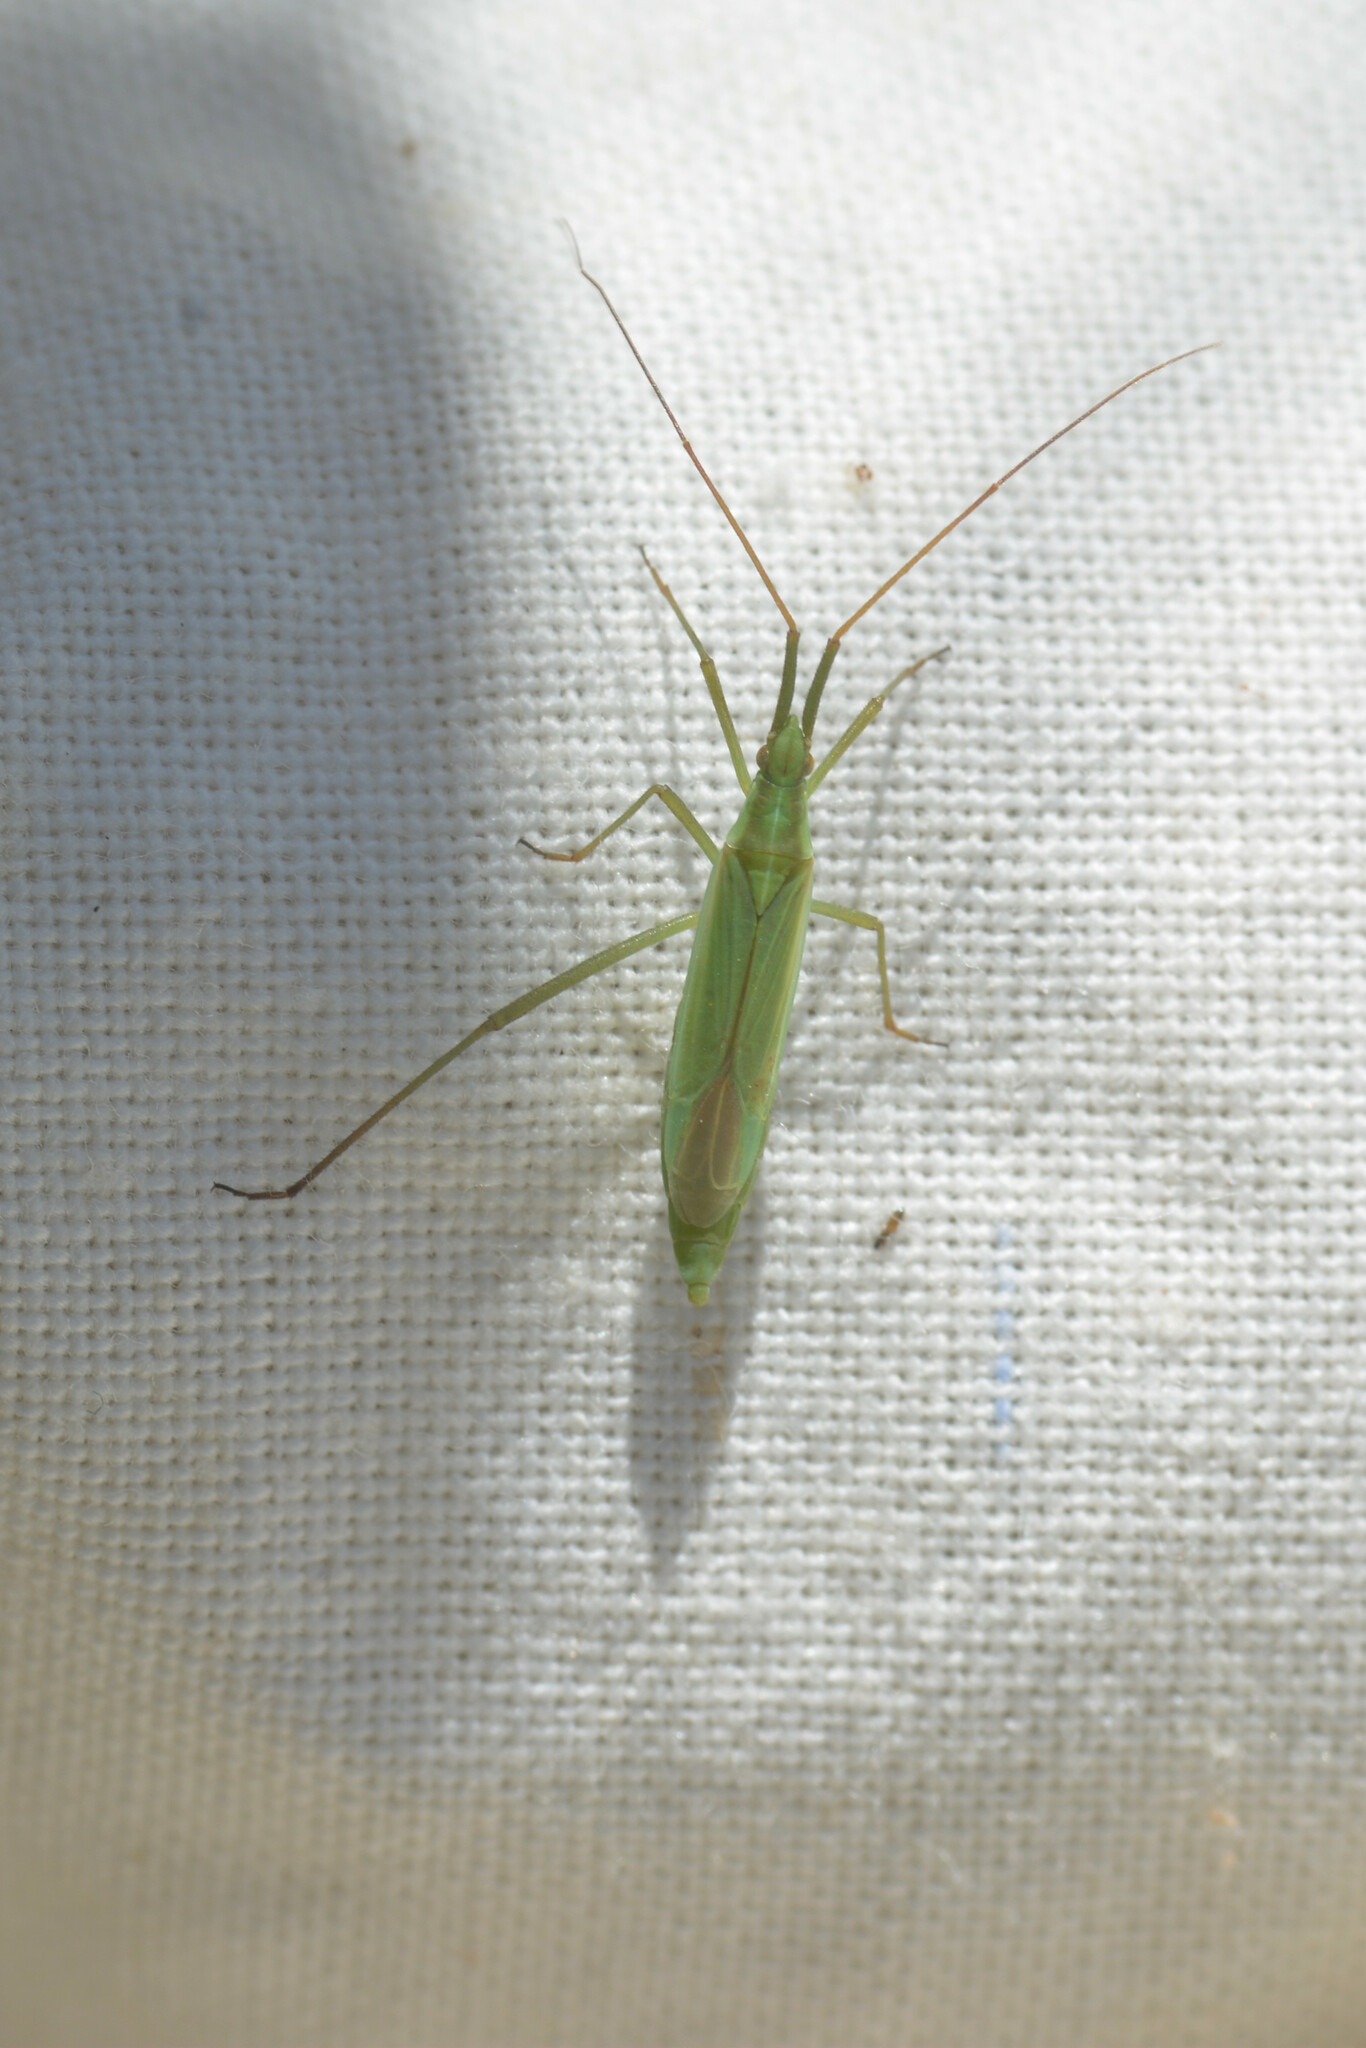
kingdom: Animalia
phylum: Arthropoda
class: Insecta
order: Hemiptera
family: Miridae
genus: Megaloceroea
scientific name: Megaloceroea recticornis
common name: Plant bug
